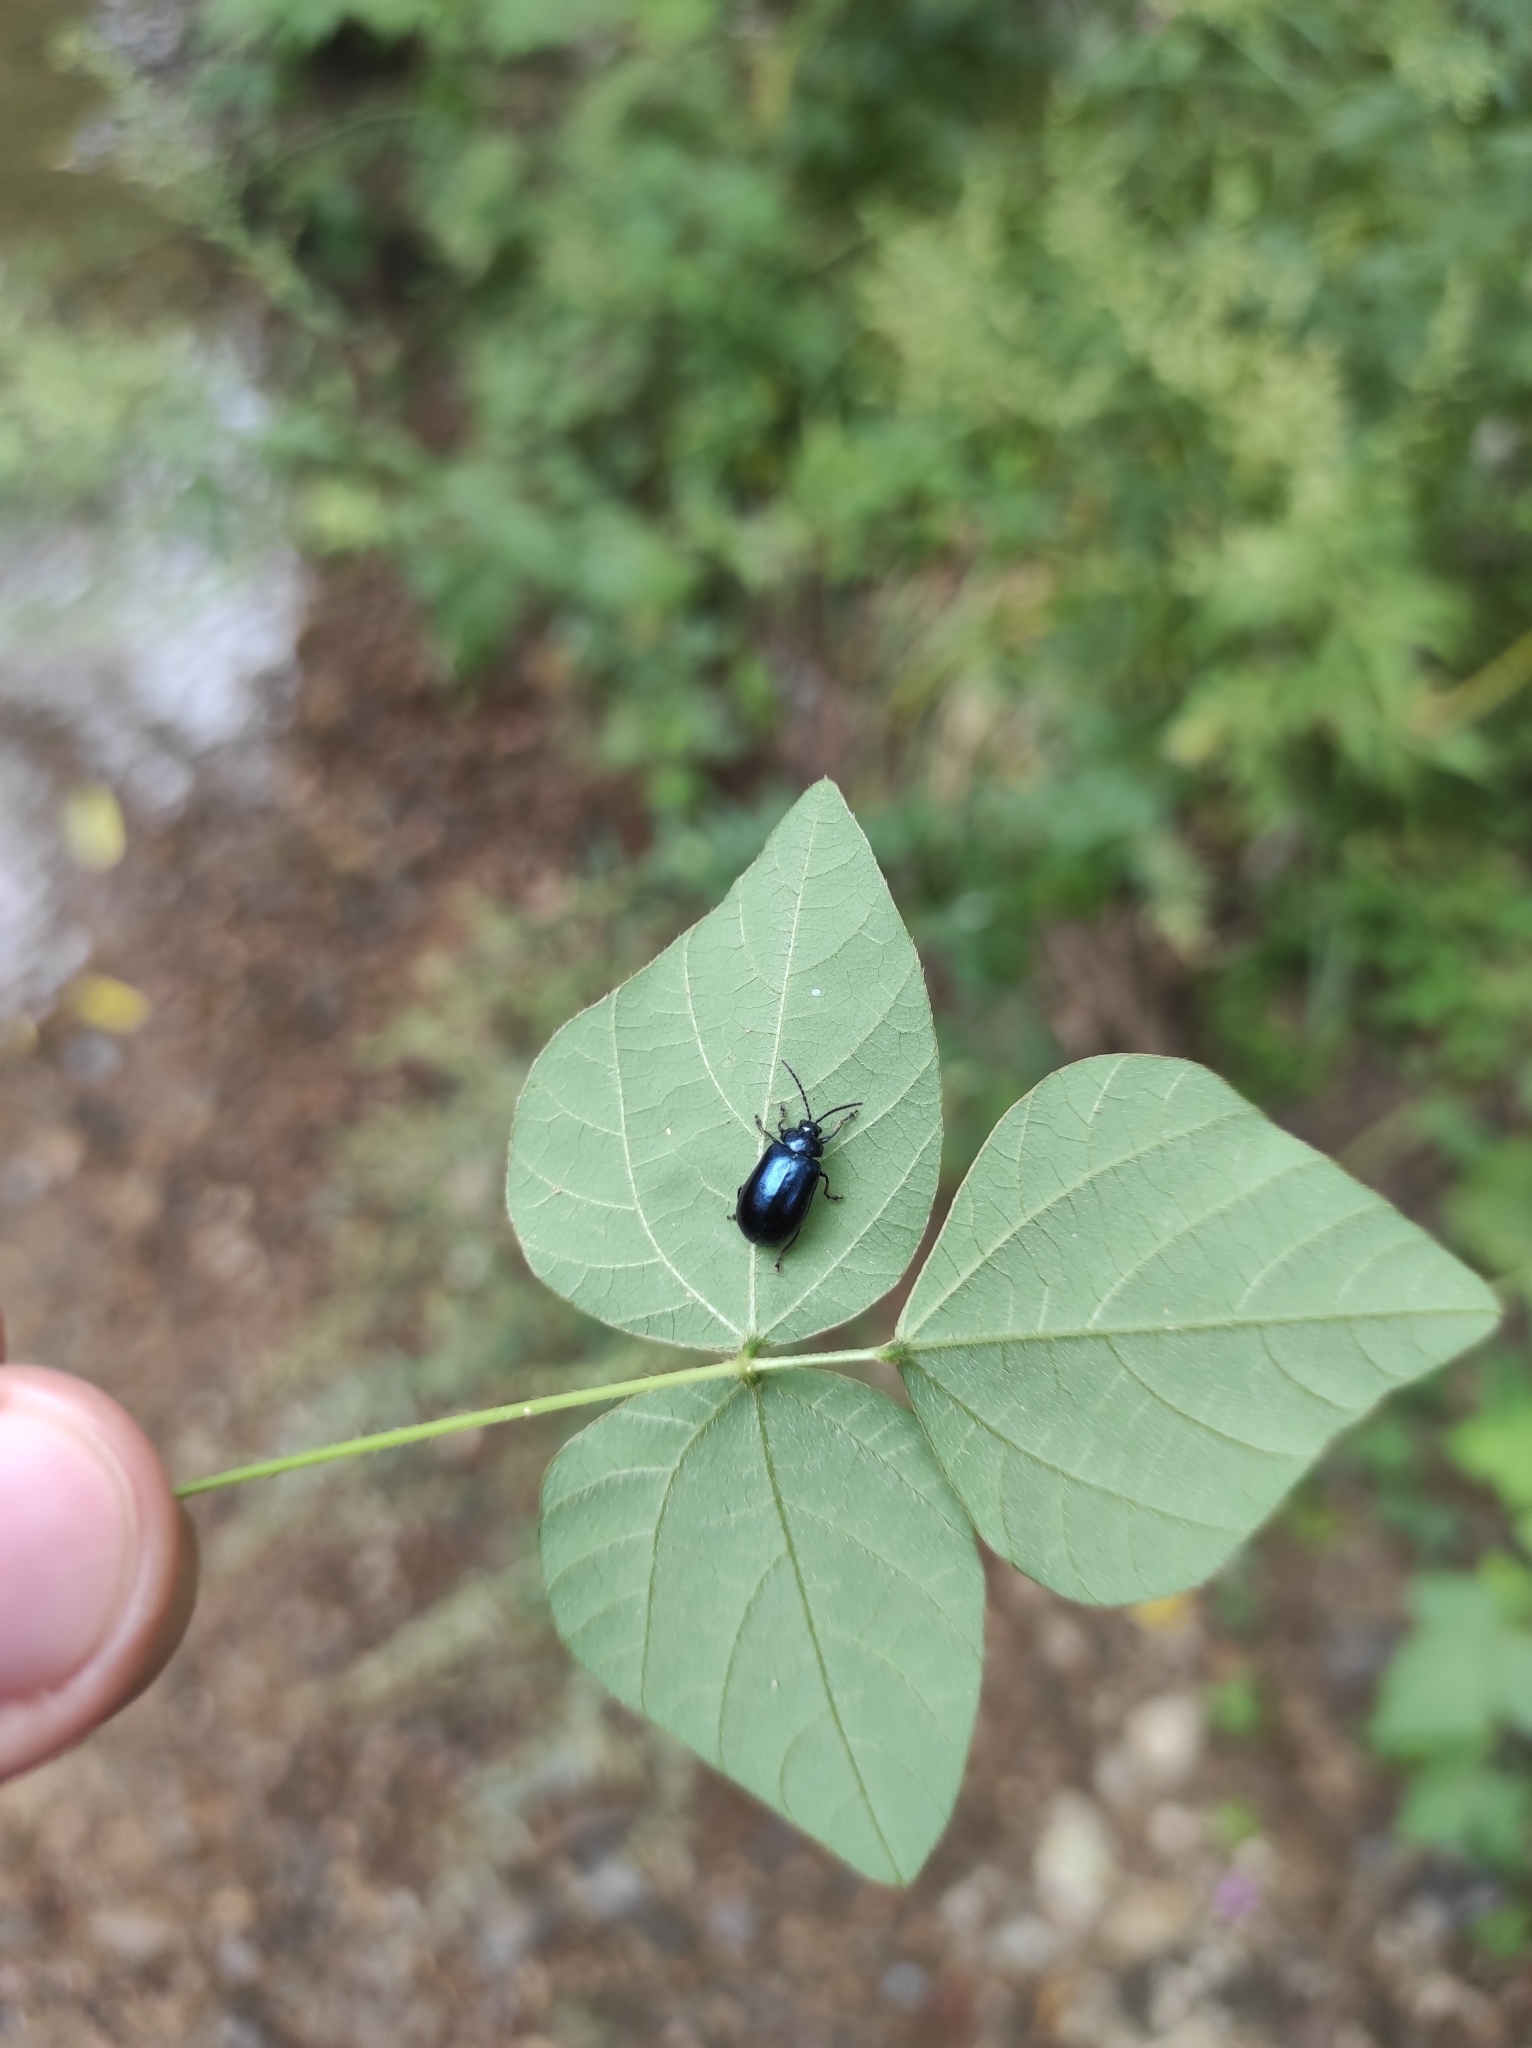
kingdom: Animalia
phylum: Arthropoda
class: Insecta
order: Coleoptera
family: Chrysomelidae
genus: Agelastica
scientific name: Agelastica coerulea
